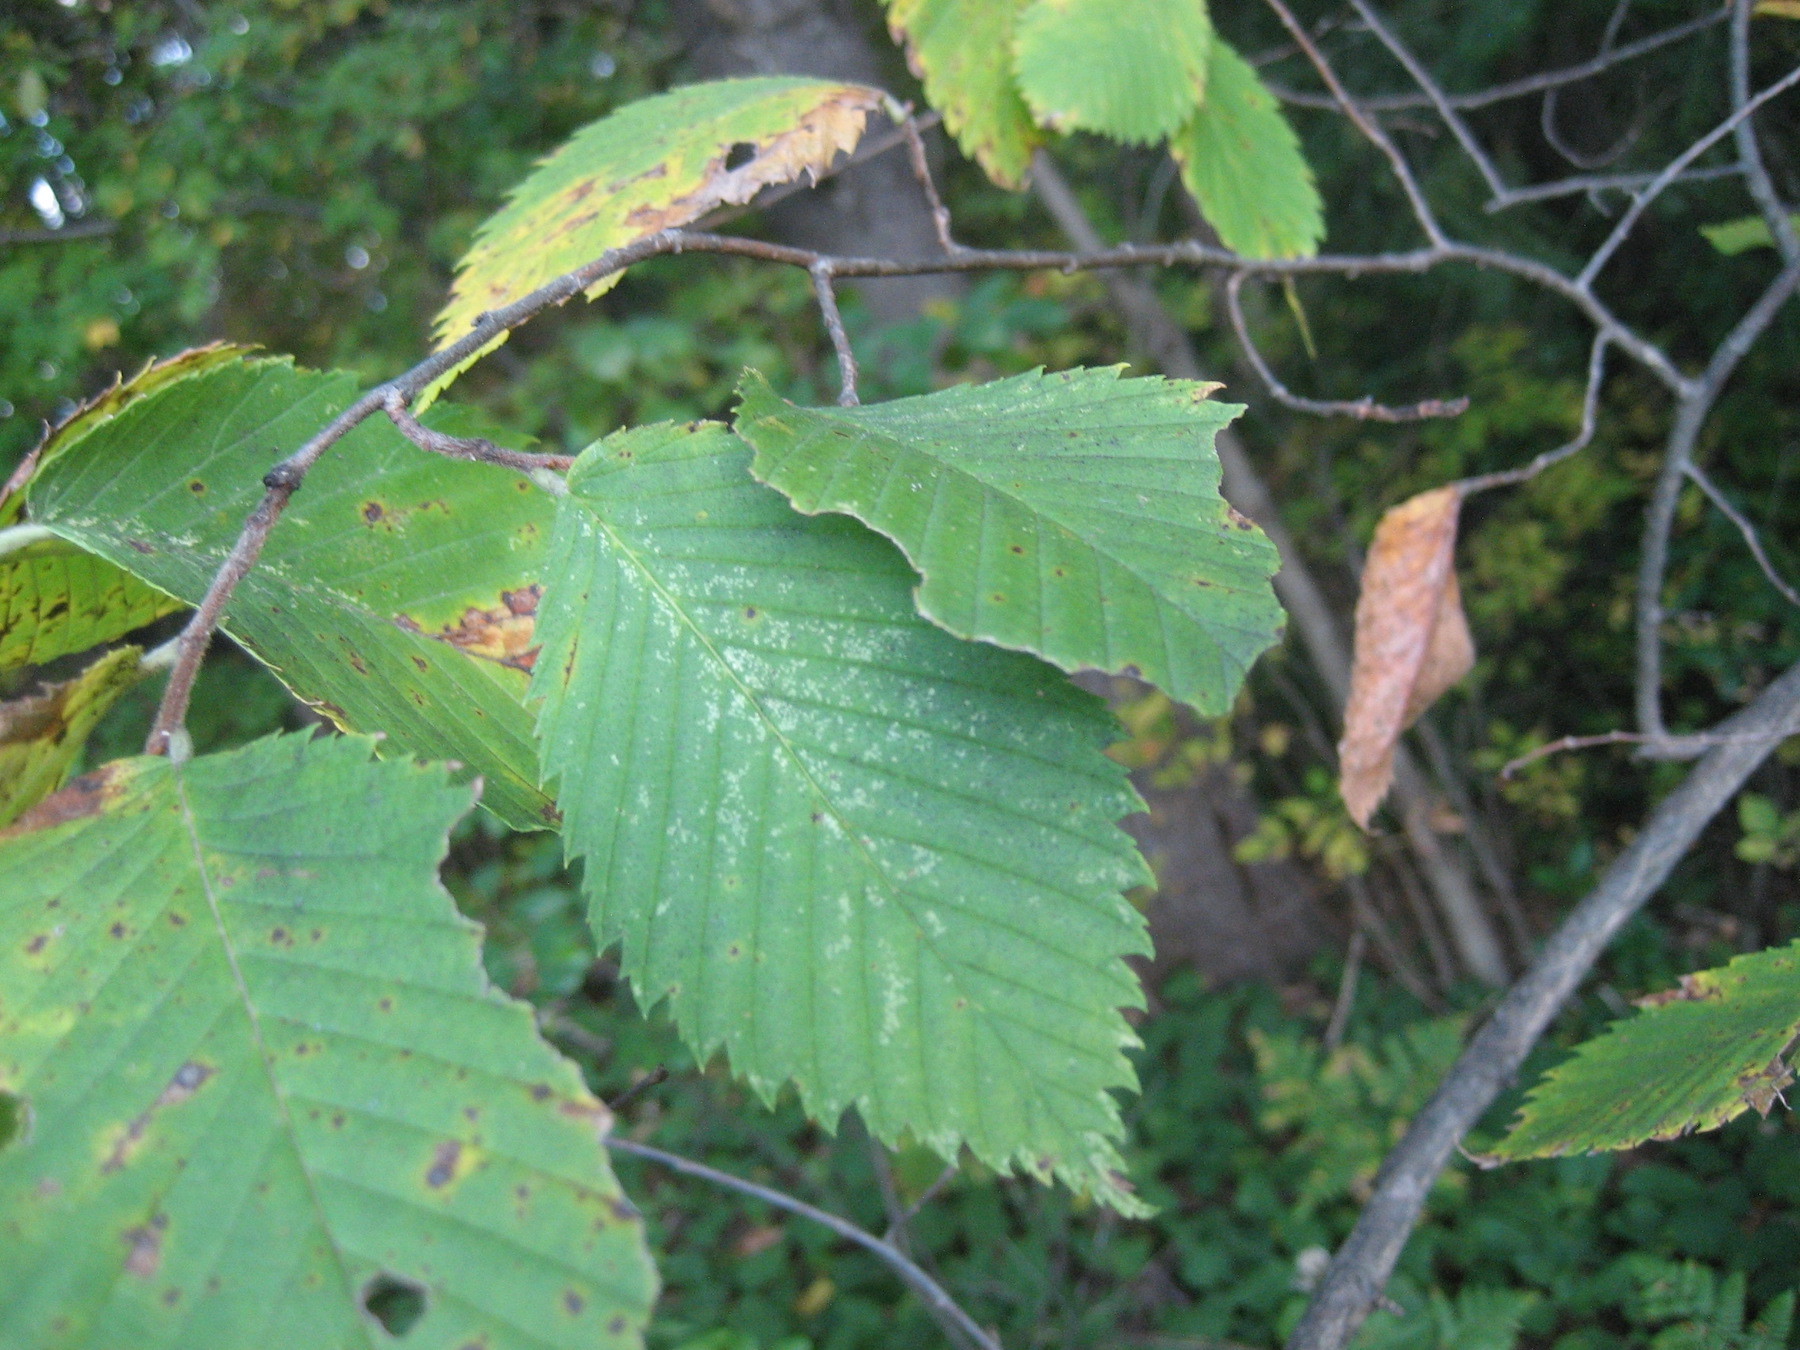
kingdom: Plantae
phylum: Tracheophyta
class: Magnoliopsida
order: Rosales
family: Ulmaceae
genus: Ulmus
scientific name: Ulmus americana
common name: American elm
